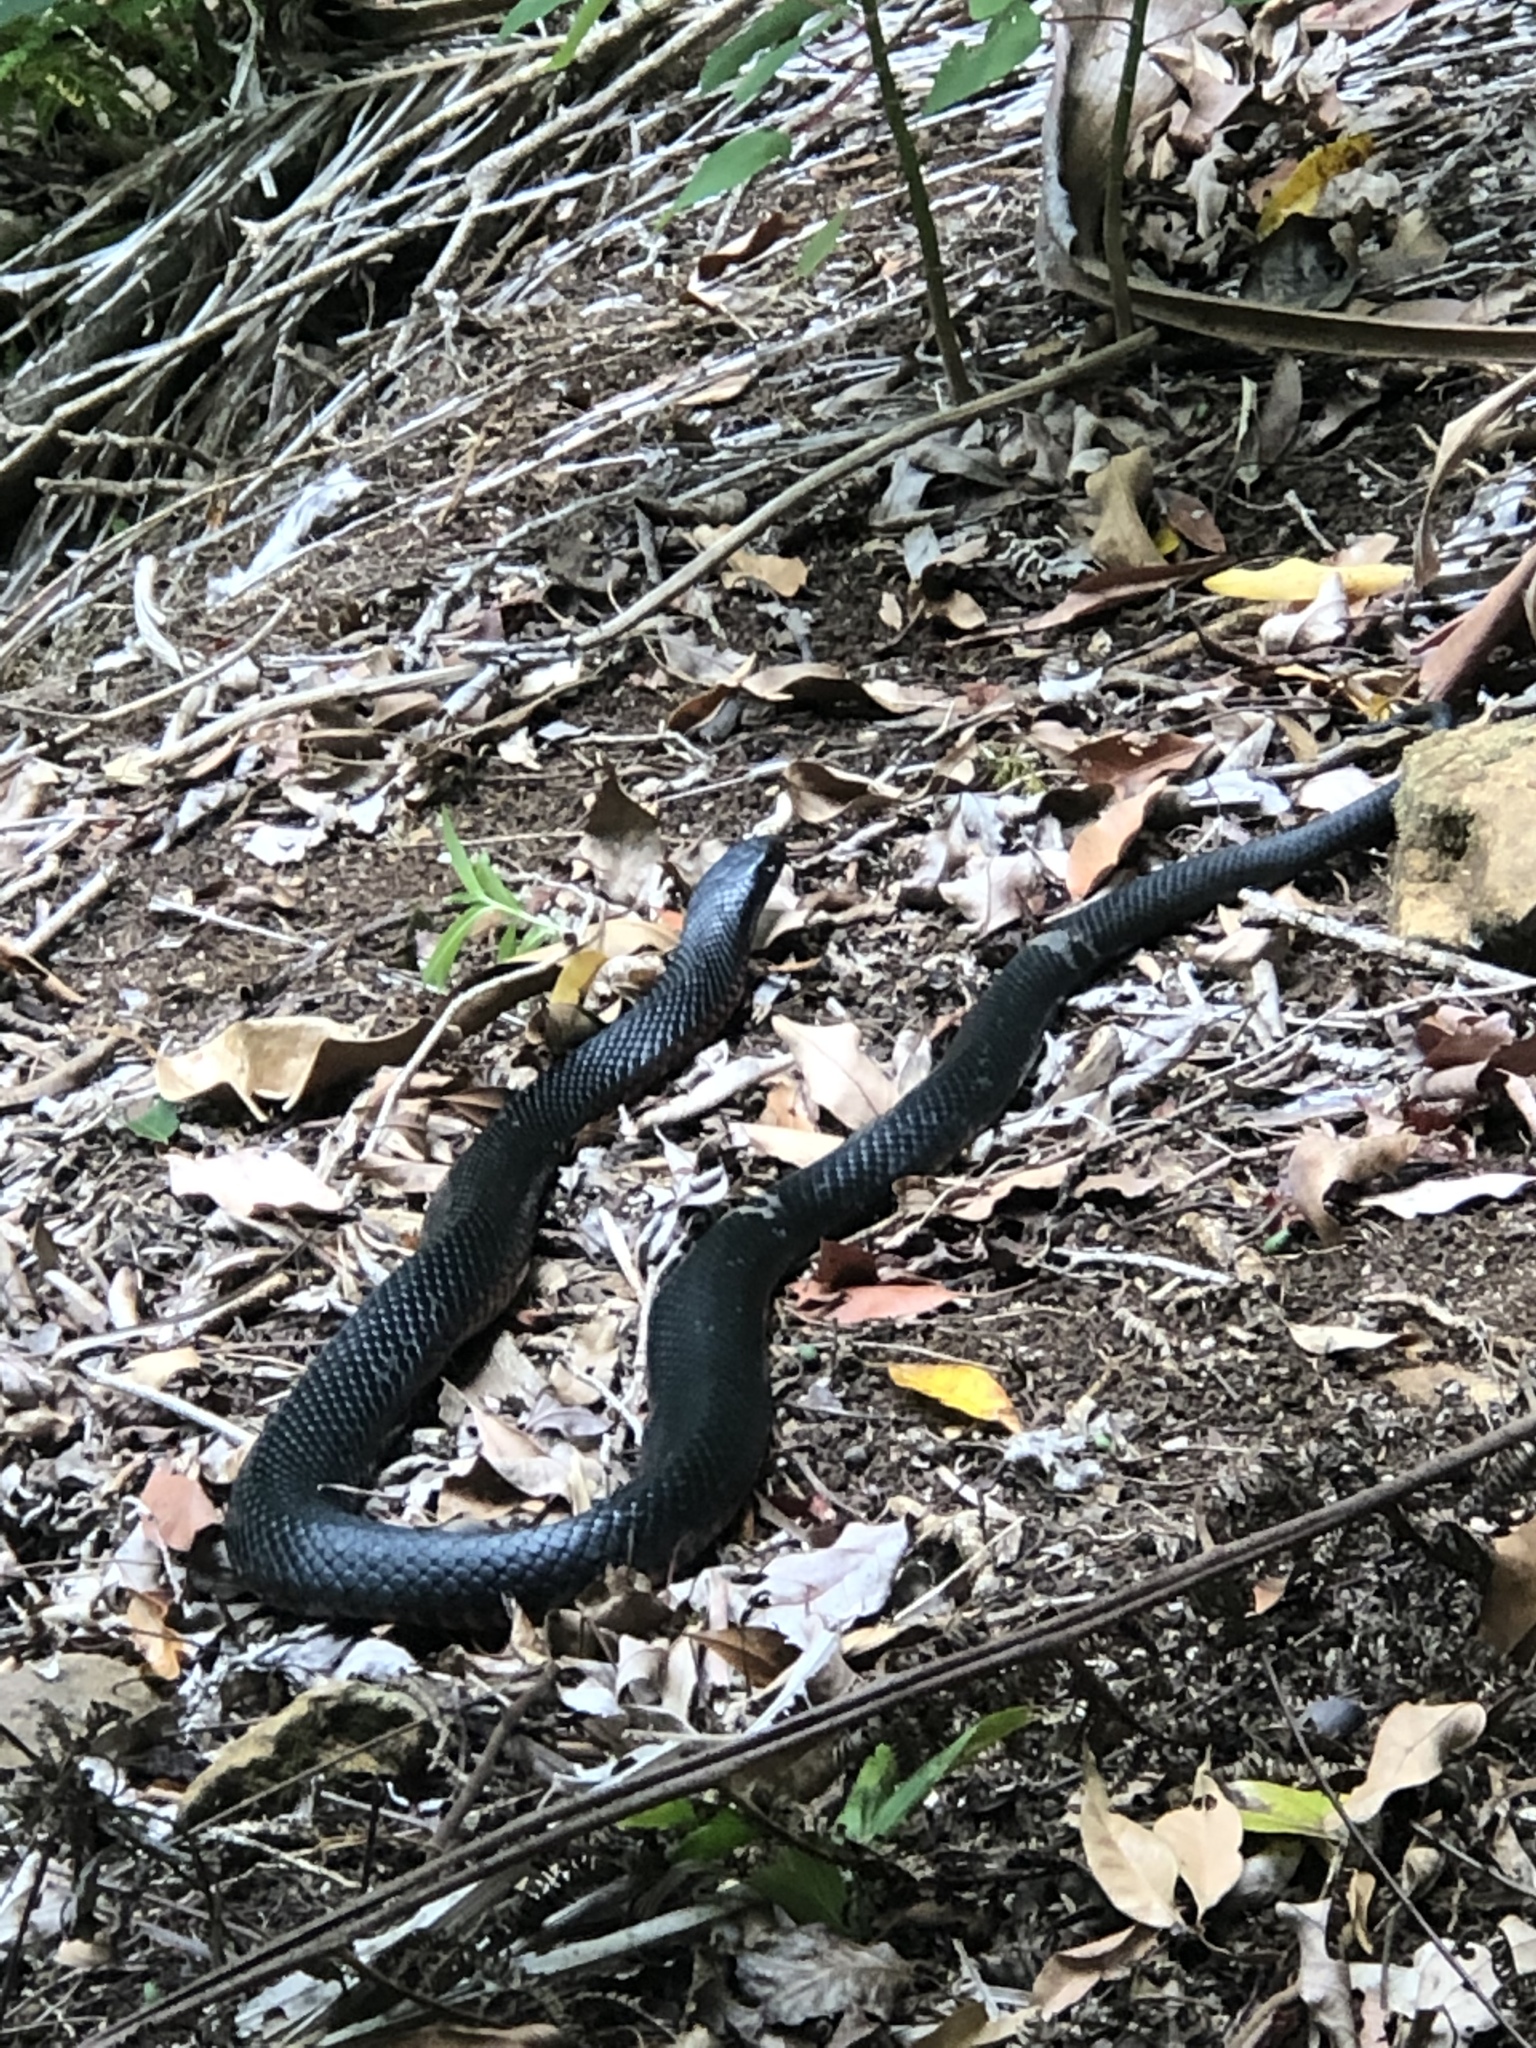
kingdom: Animalia
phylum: Chordata
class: Squamata
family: Elapidae
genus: Pseudechis
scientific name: Pseudechis porphyriacus
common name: Australian black snake
